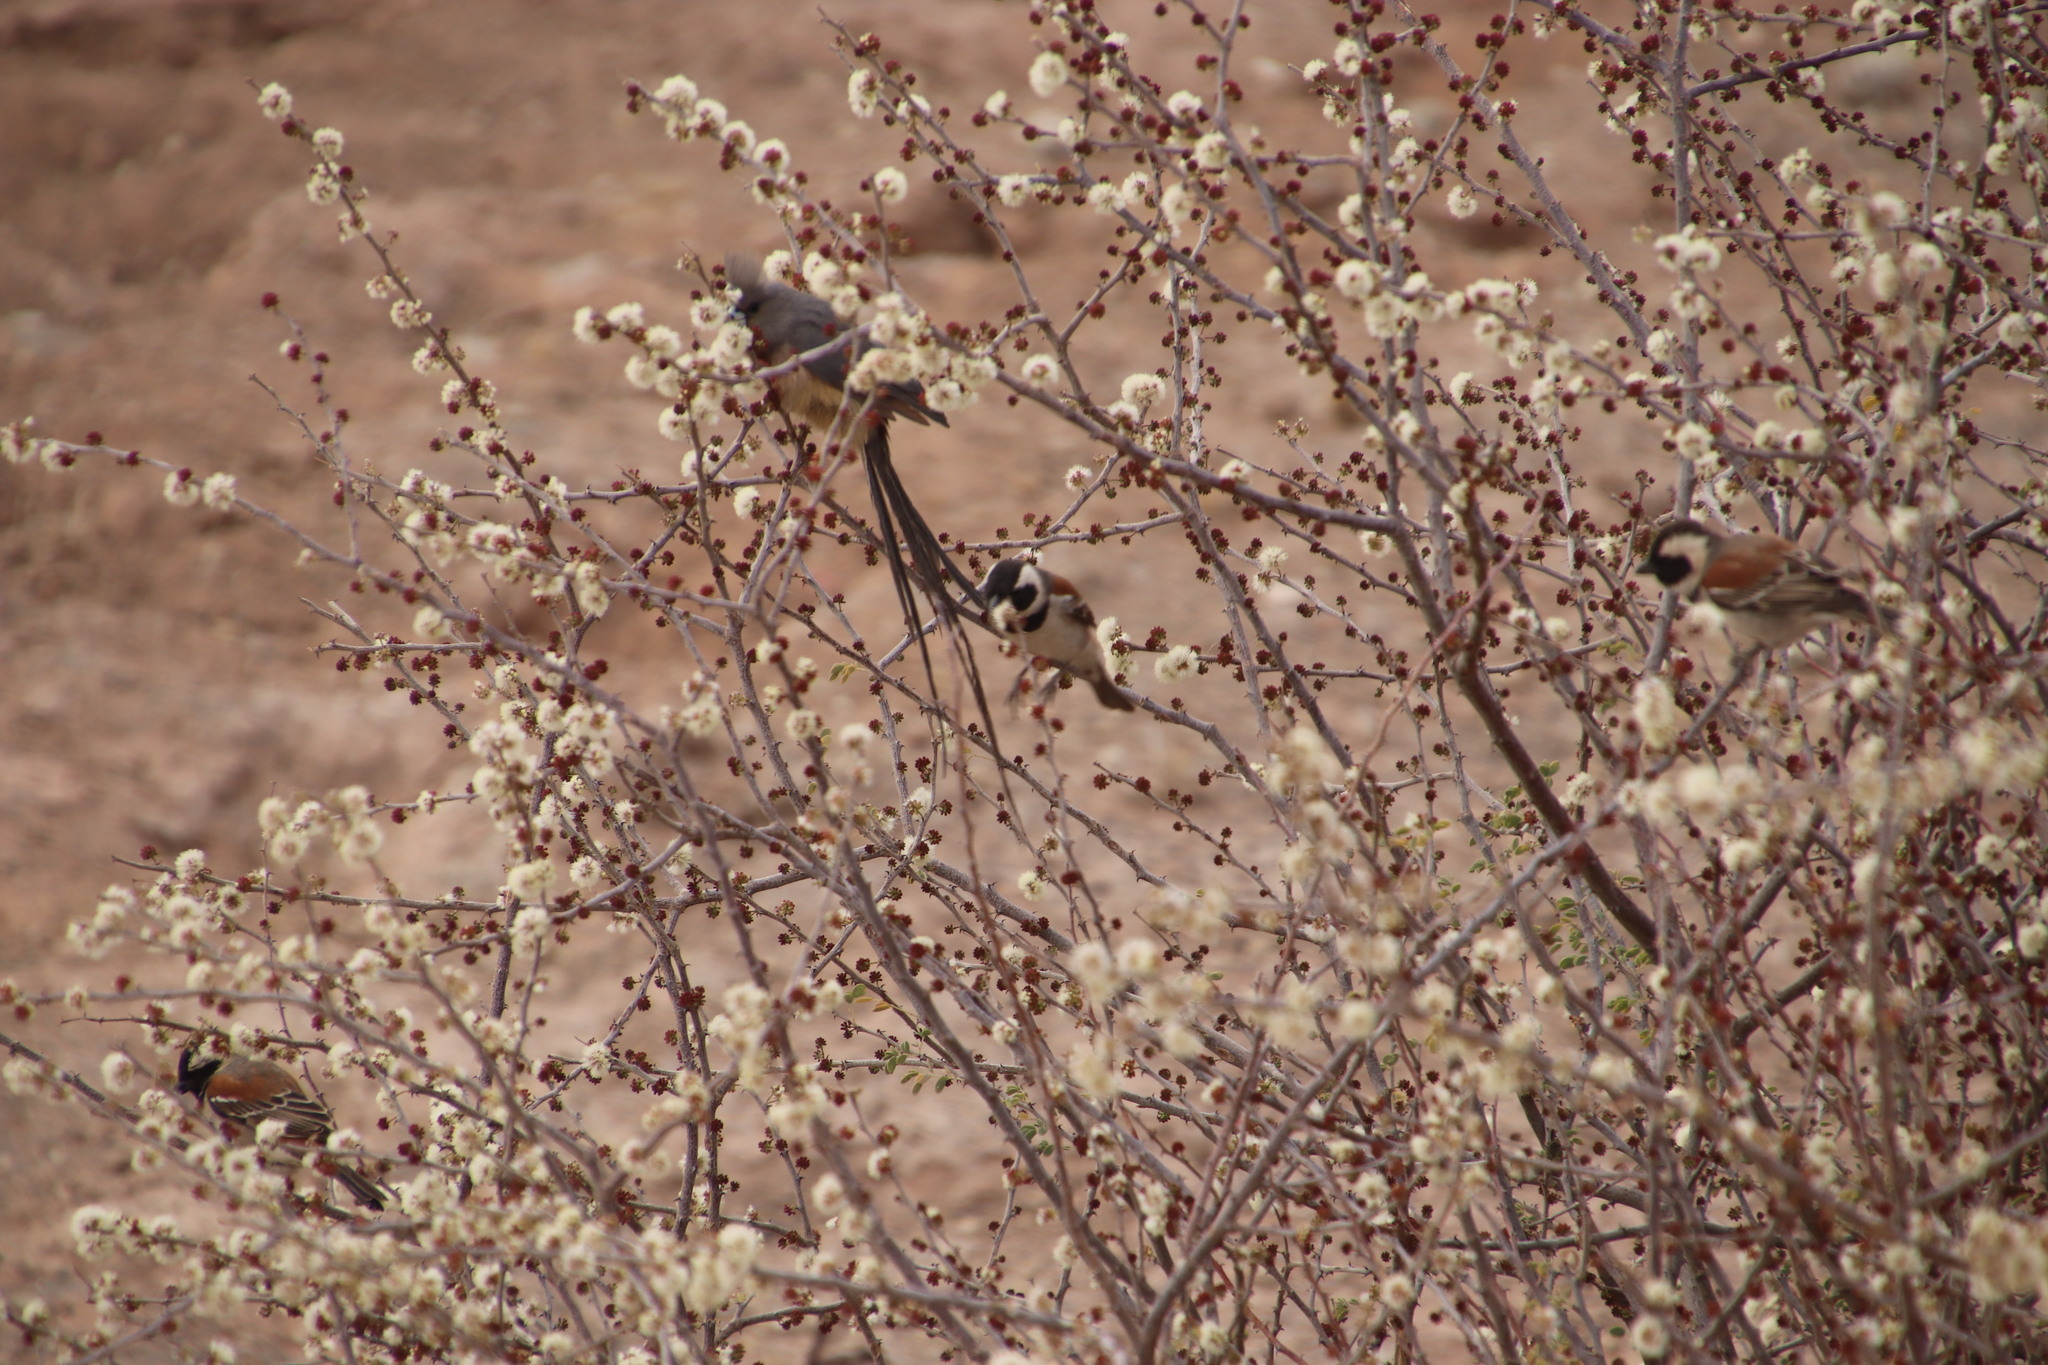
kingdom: Animalia
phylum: Chordata
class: Aves
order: Coliiformes
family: Coliidae
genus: Colius
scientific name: Colius colius
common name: White-backed mousebird
